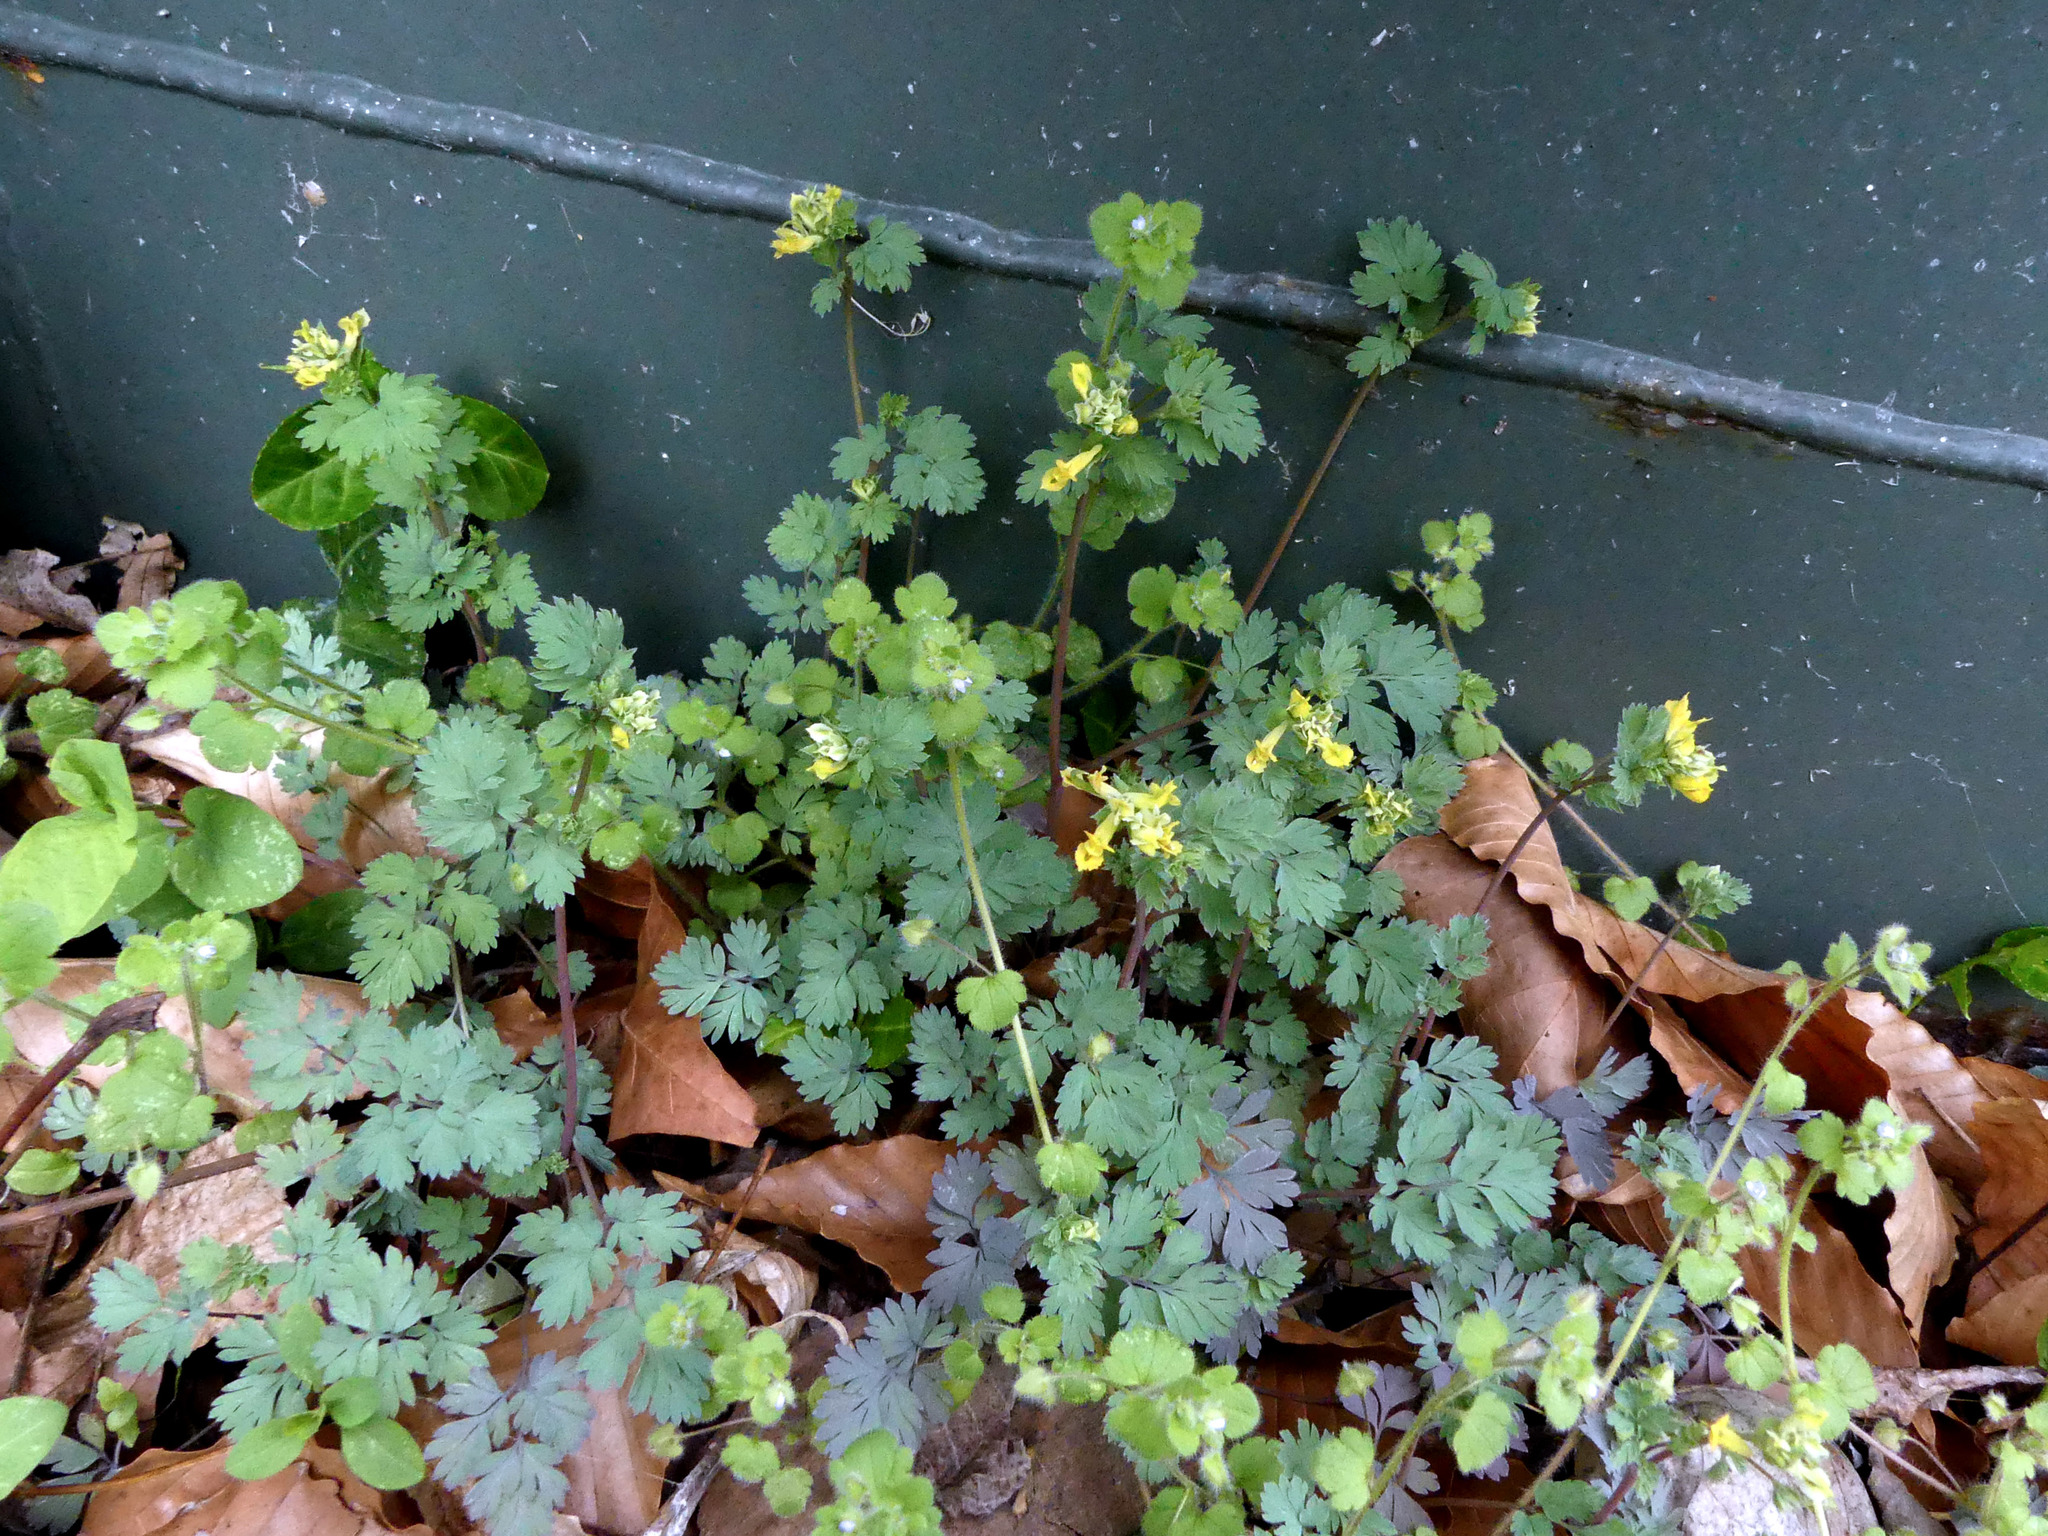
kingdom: Plantae
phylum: Tracheophyta
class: Magnoliopsida
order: Ranunculales
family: Papaveraceae
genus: Corydalis
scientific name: Corydalis flavula
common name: Yellow corydalis
